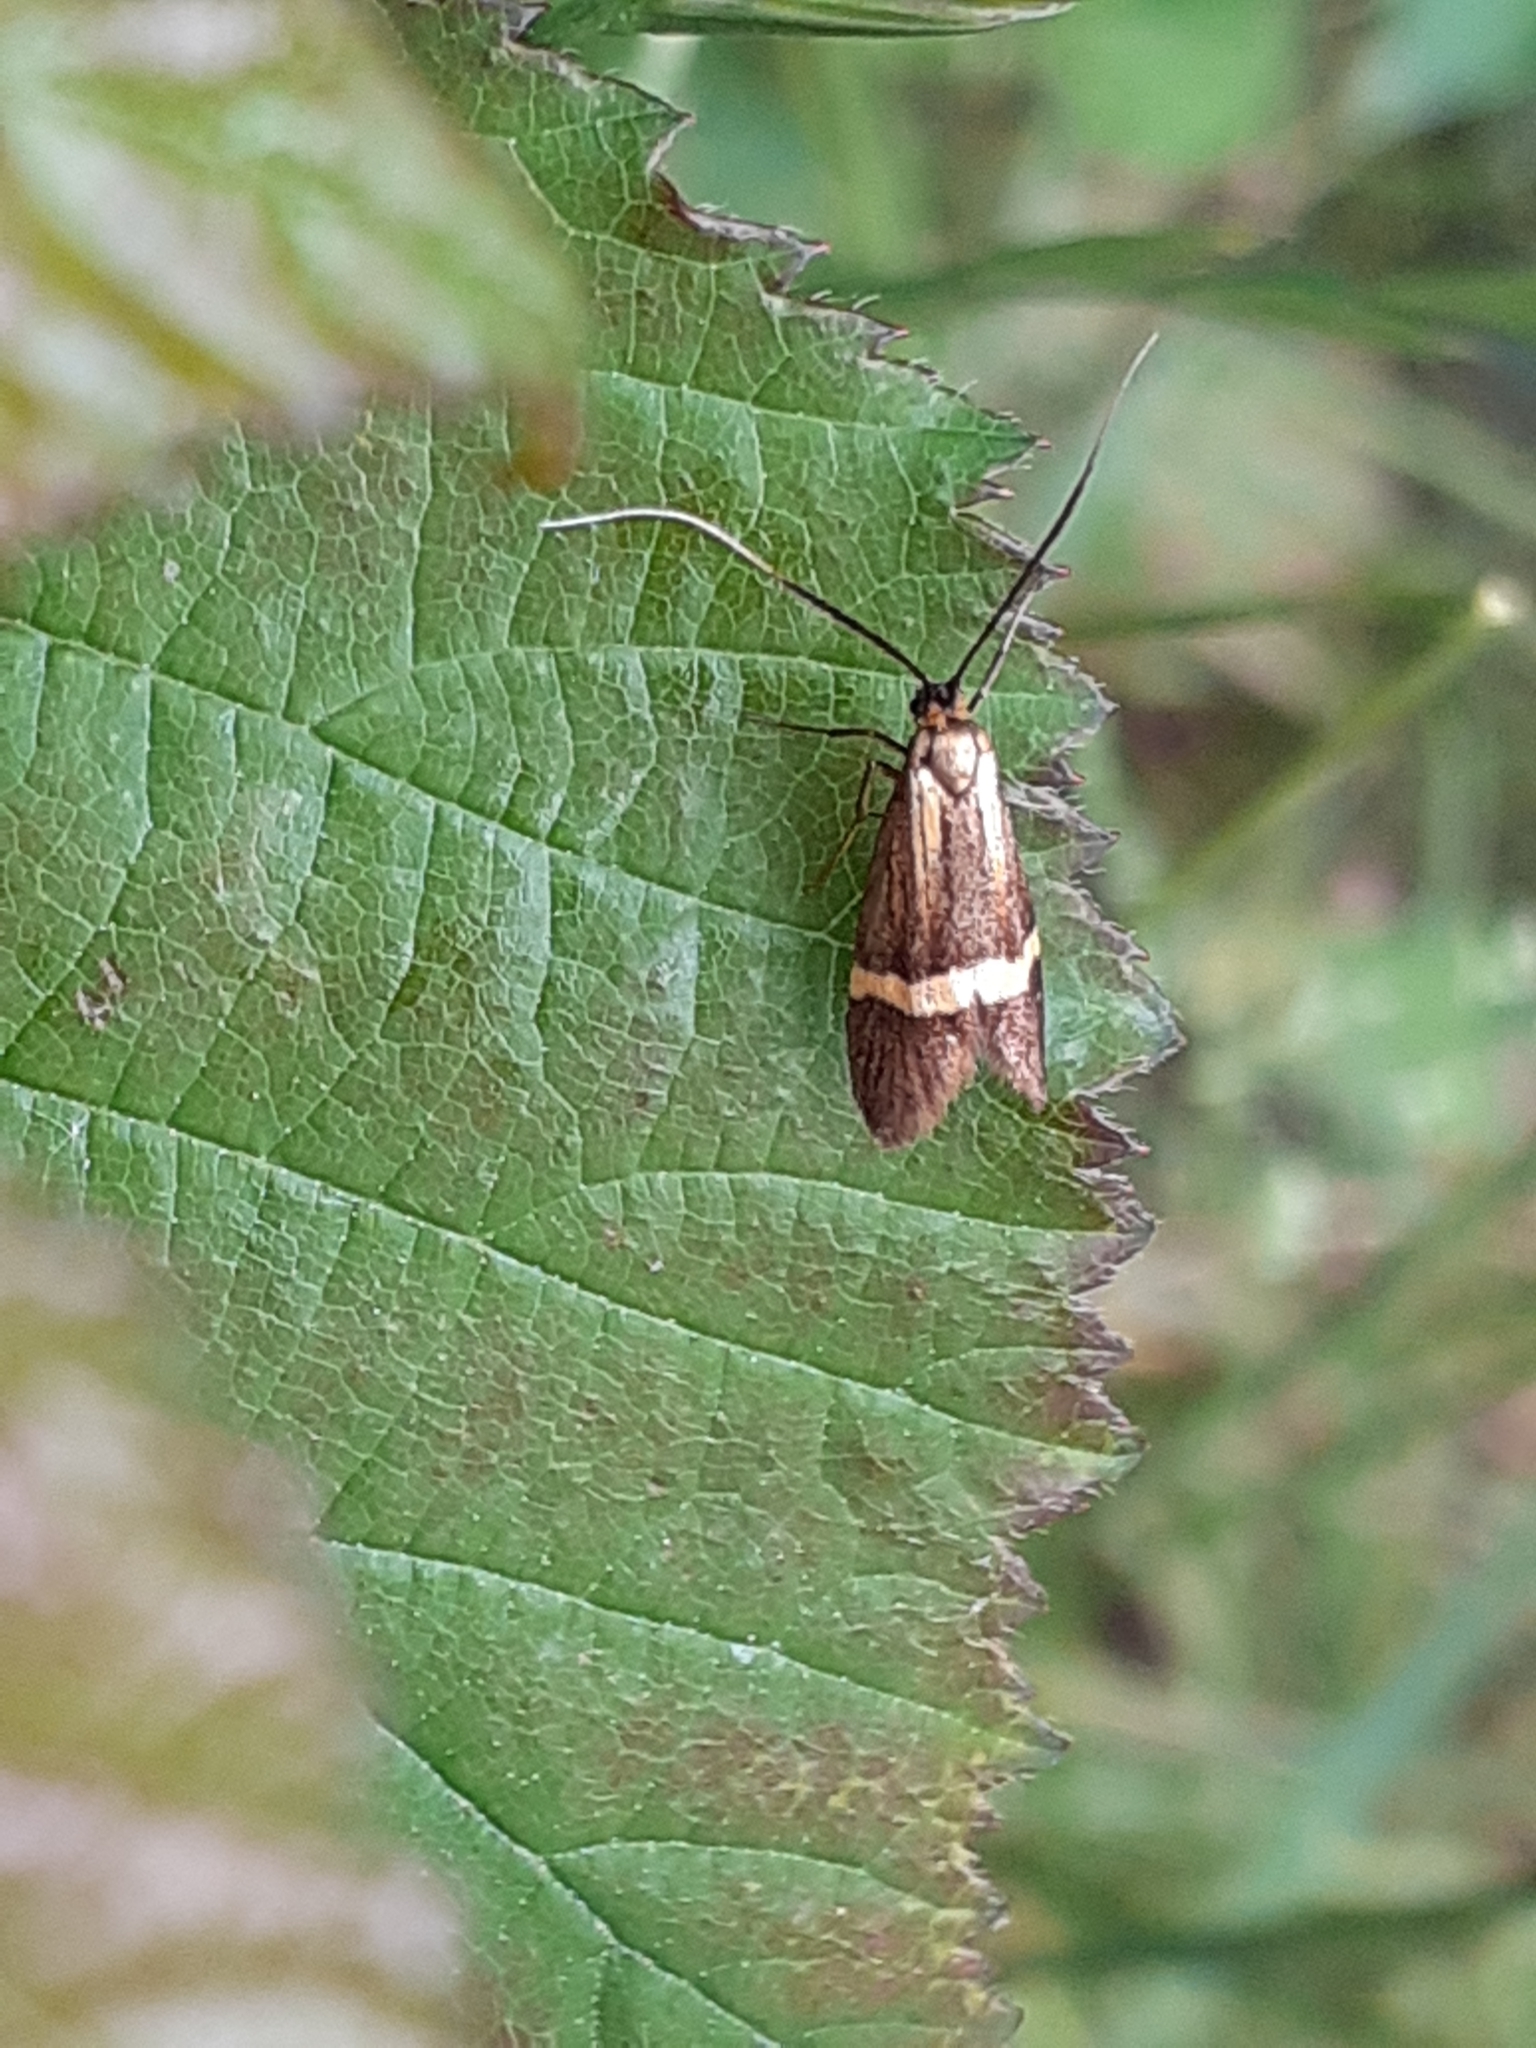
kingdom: Animalia
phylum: Arthropoda
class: Insecta
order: Lepidoptera
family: Adelidae
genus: Nemophora
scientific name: Nemophora degeerella
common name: Yellow-barred long-horn
